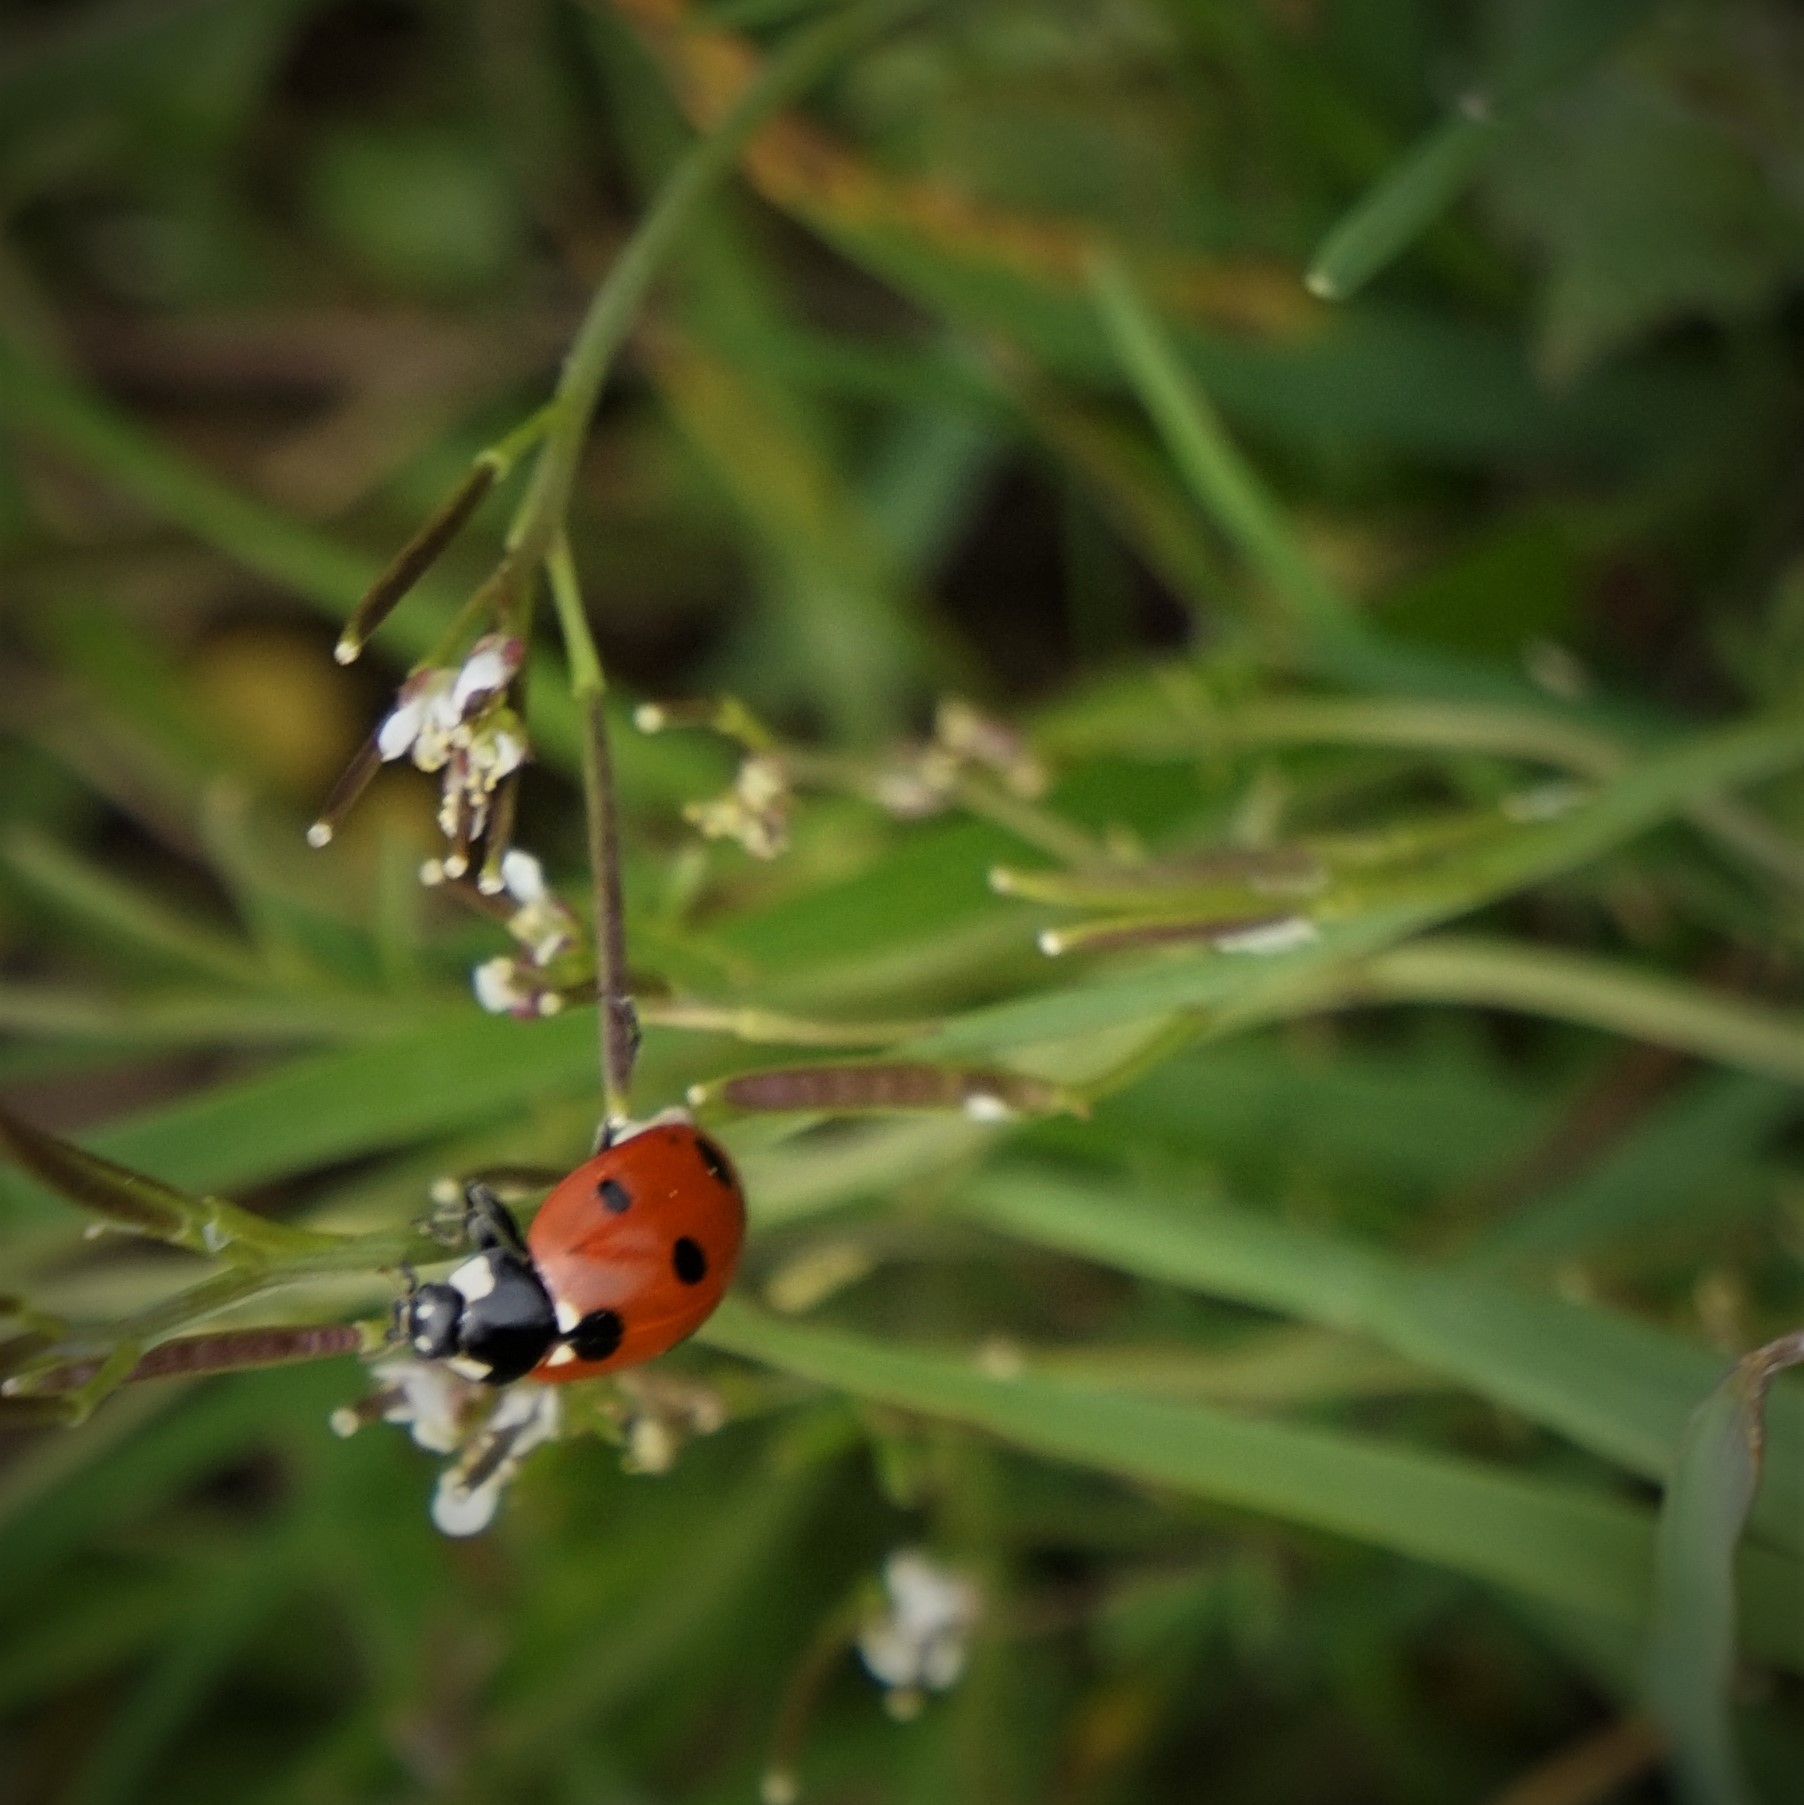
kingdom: Animalia
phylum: Arthropoda
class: Insecta
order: Coleoptera
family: Coccinellidae
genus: Coccinella
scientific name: Coccinella septempunctata
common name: Sevenspotted lady beetle
